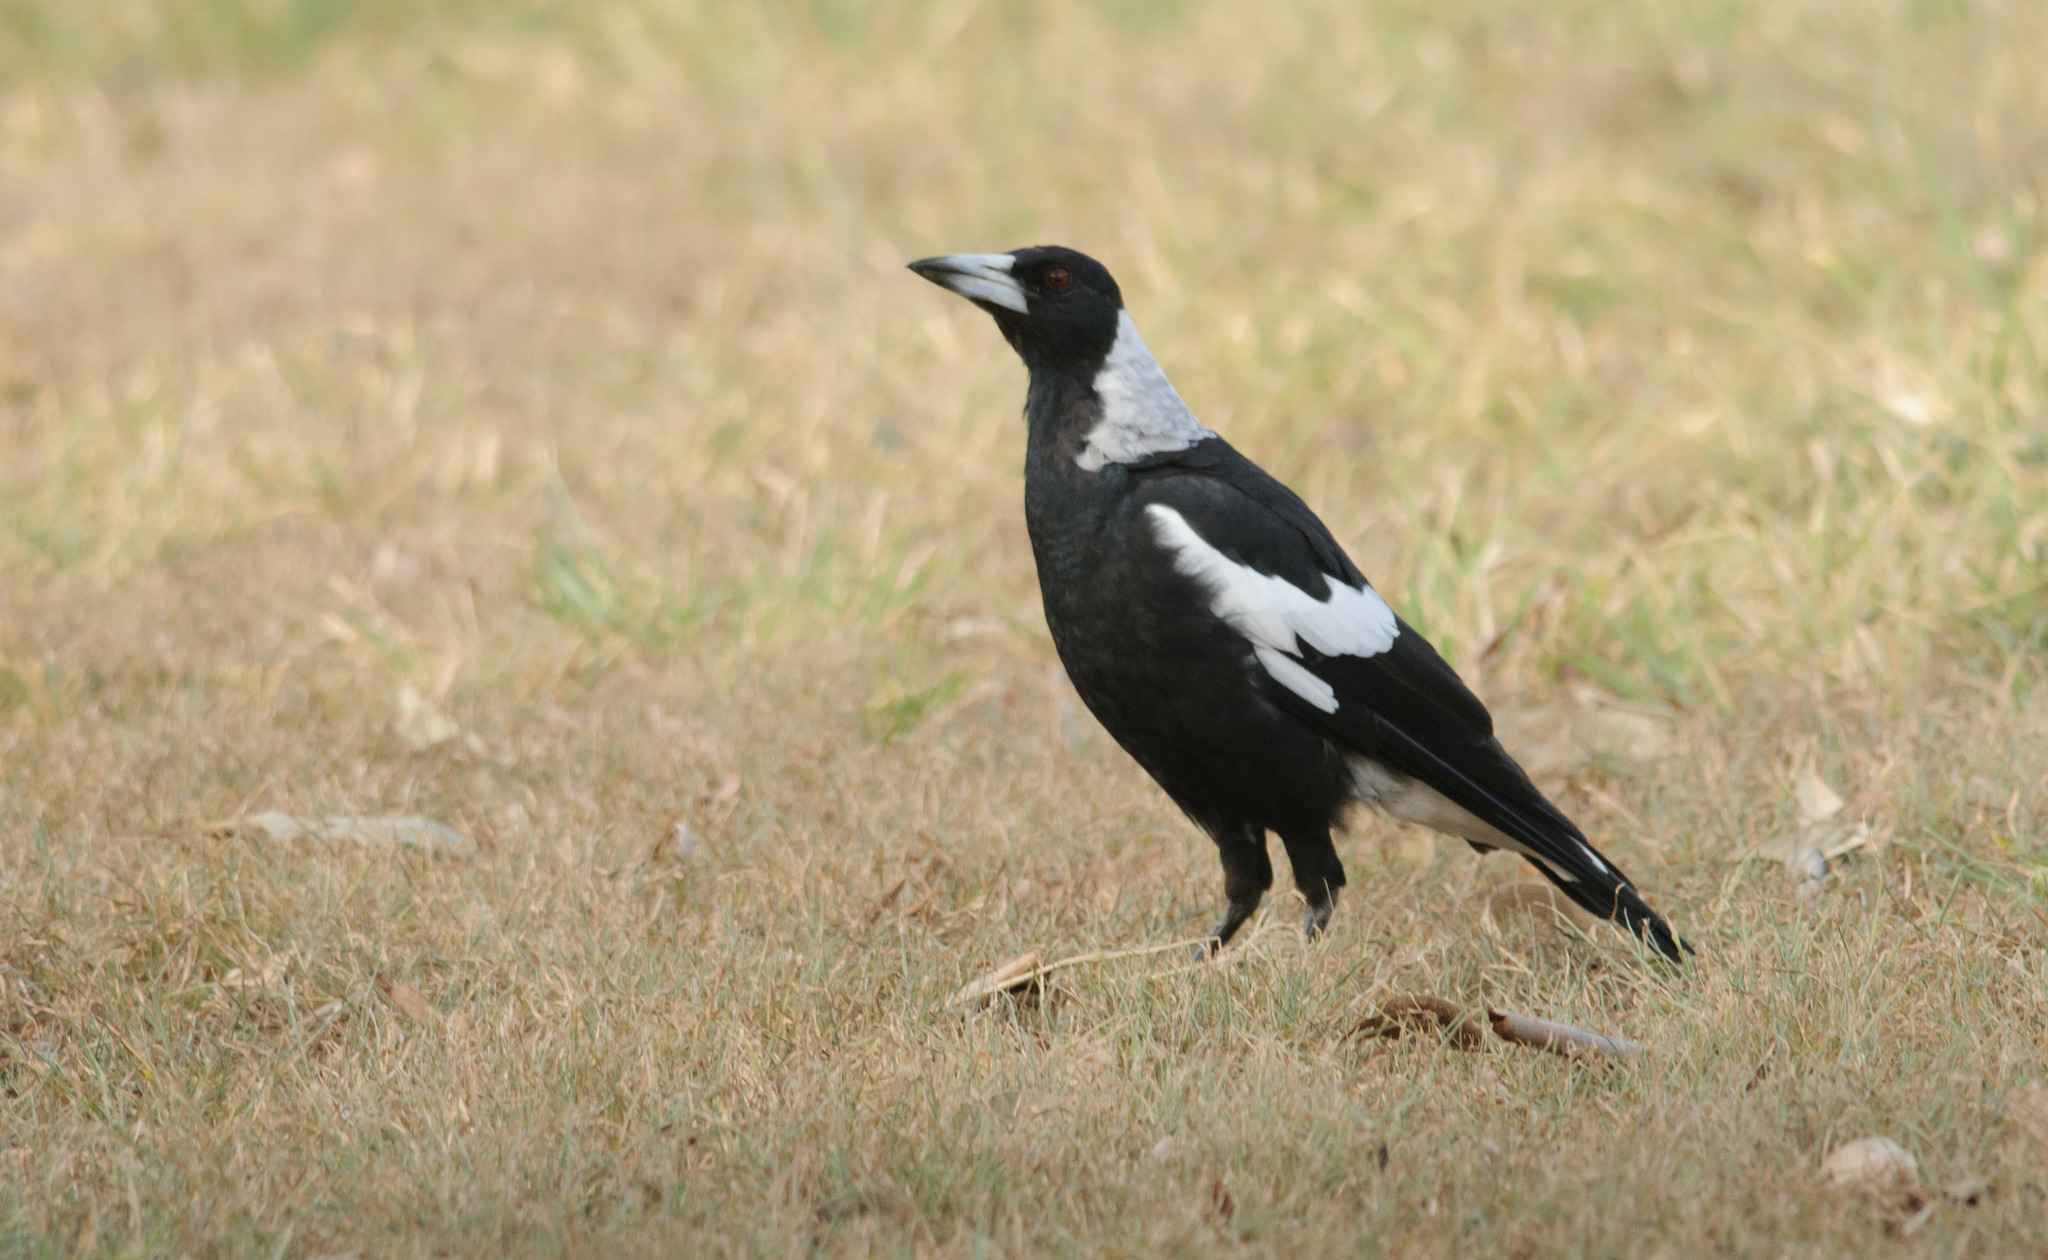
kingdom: Animalia
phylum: Chordata
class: Aves
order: Passeriformes
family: Cracticidae
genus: Gymnorhina
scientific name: Gymnorhina tibicen
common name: Australian magpie
